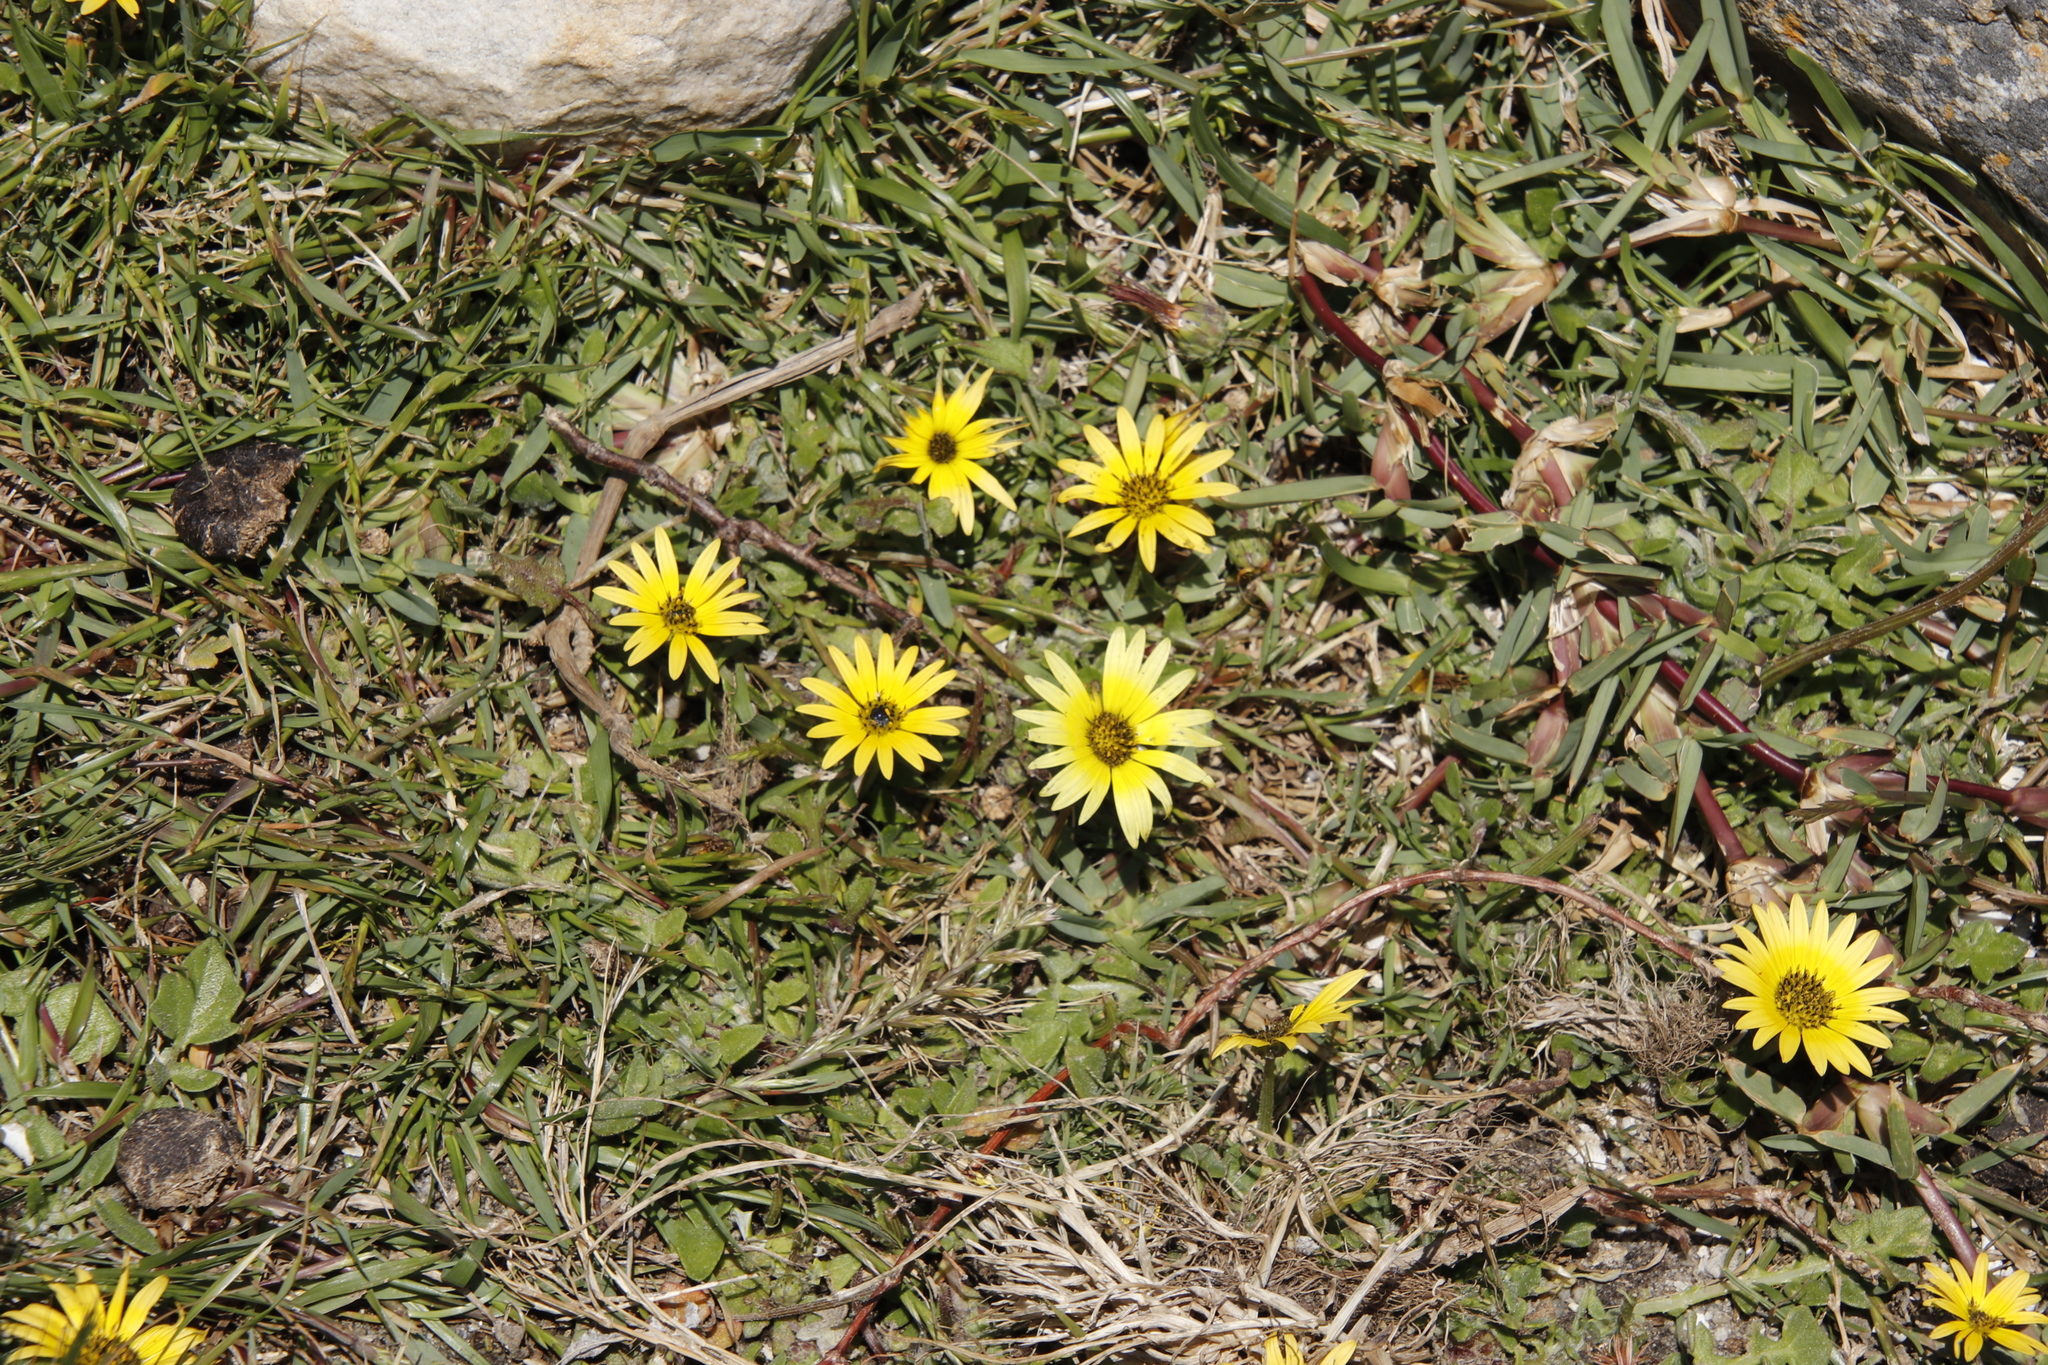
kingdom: Plantae
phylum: Tracheophyta
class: Magnoliopsida
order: Asterales
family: Asteraceae
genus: Arctotheca
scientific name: Arctotheca calendula
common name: Capeweed
